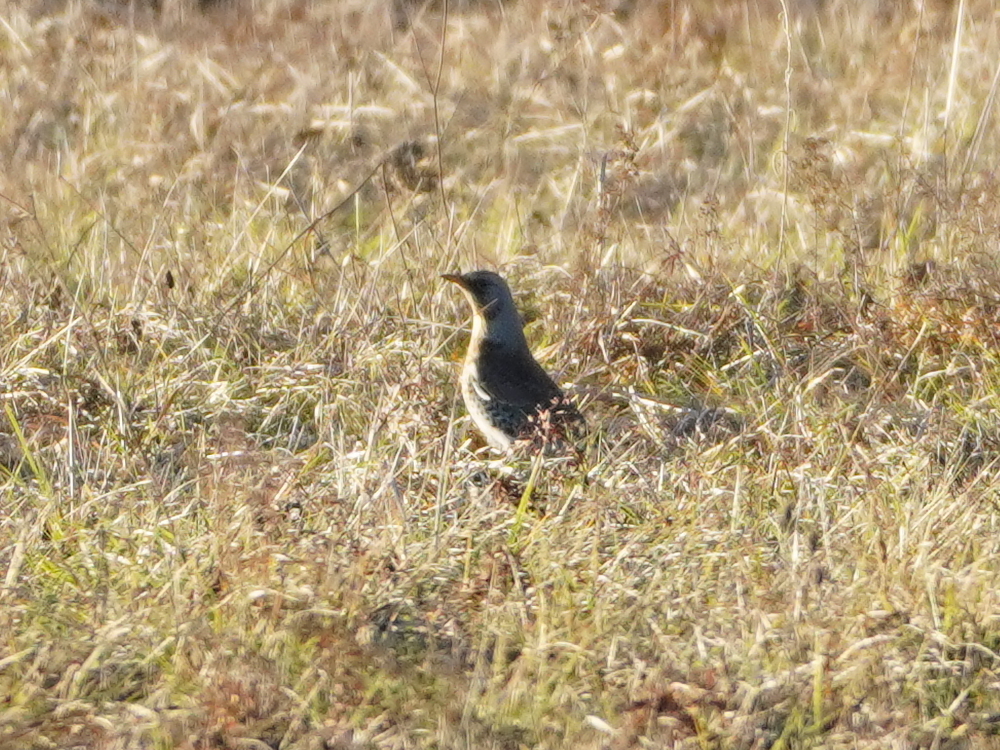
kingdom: Animalia
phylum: Chordata
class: Aves
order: Passeriformes
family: Turdidae
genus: Turdus
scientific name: Turdus pilaris
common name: Fieldfare
